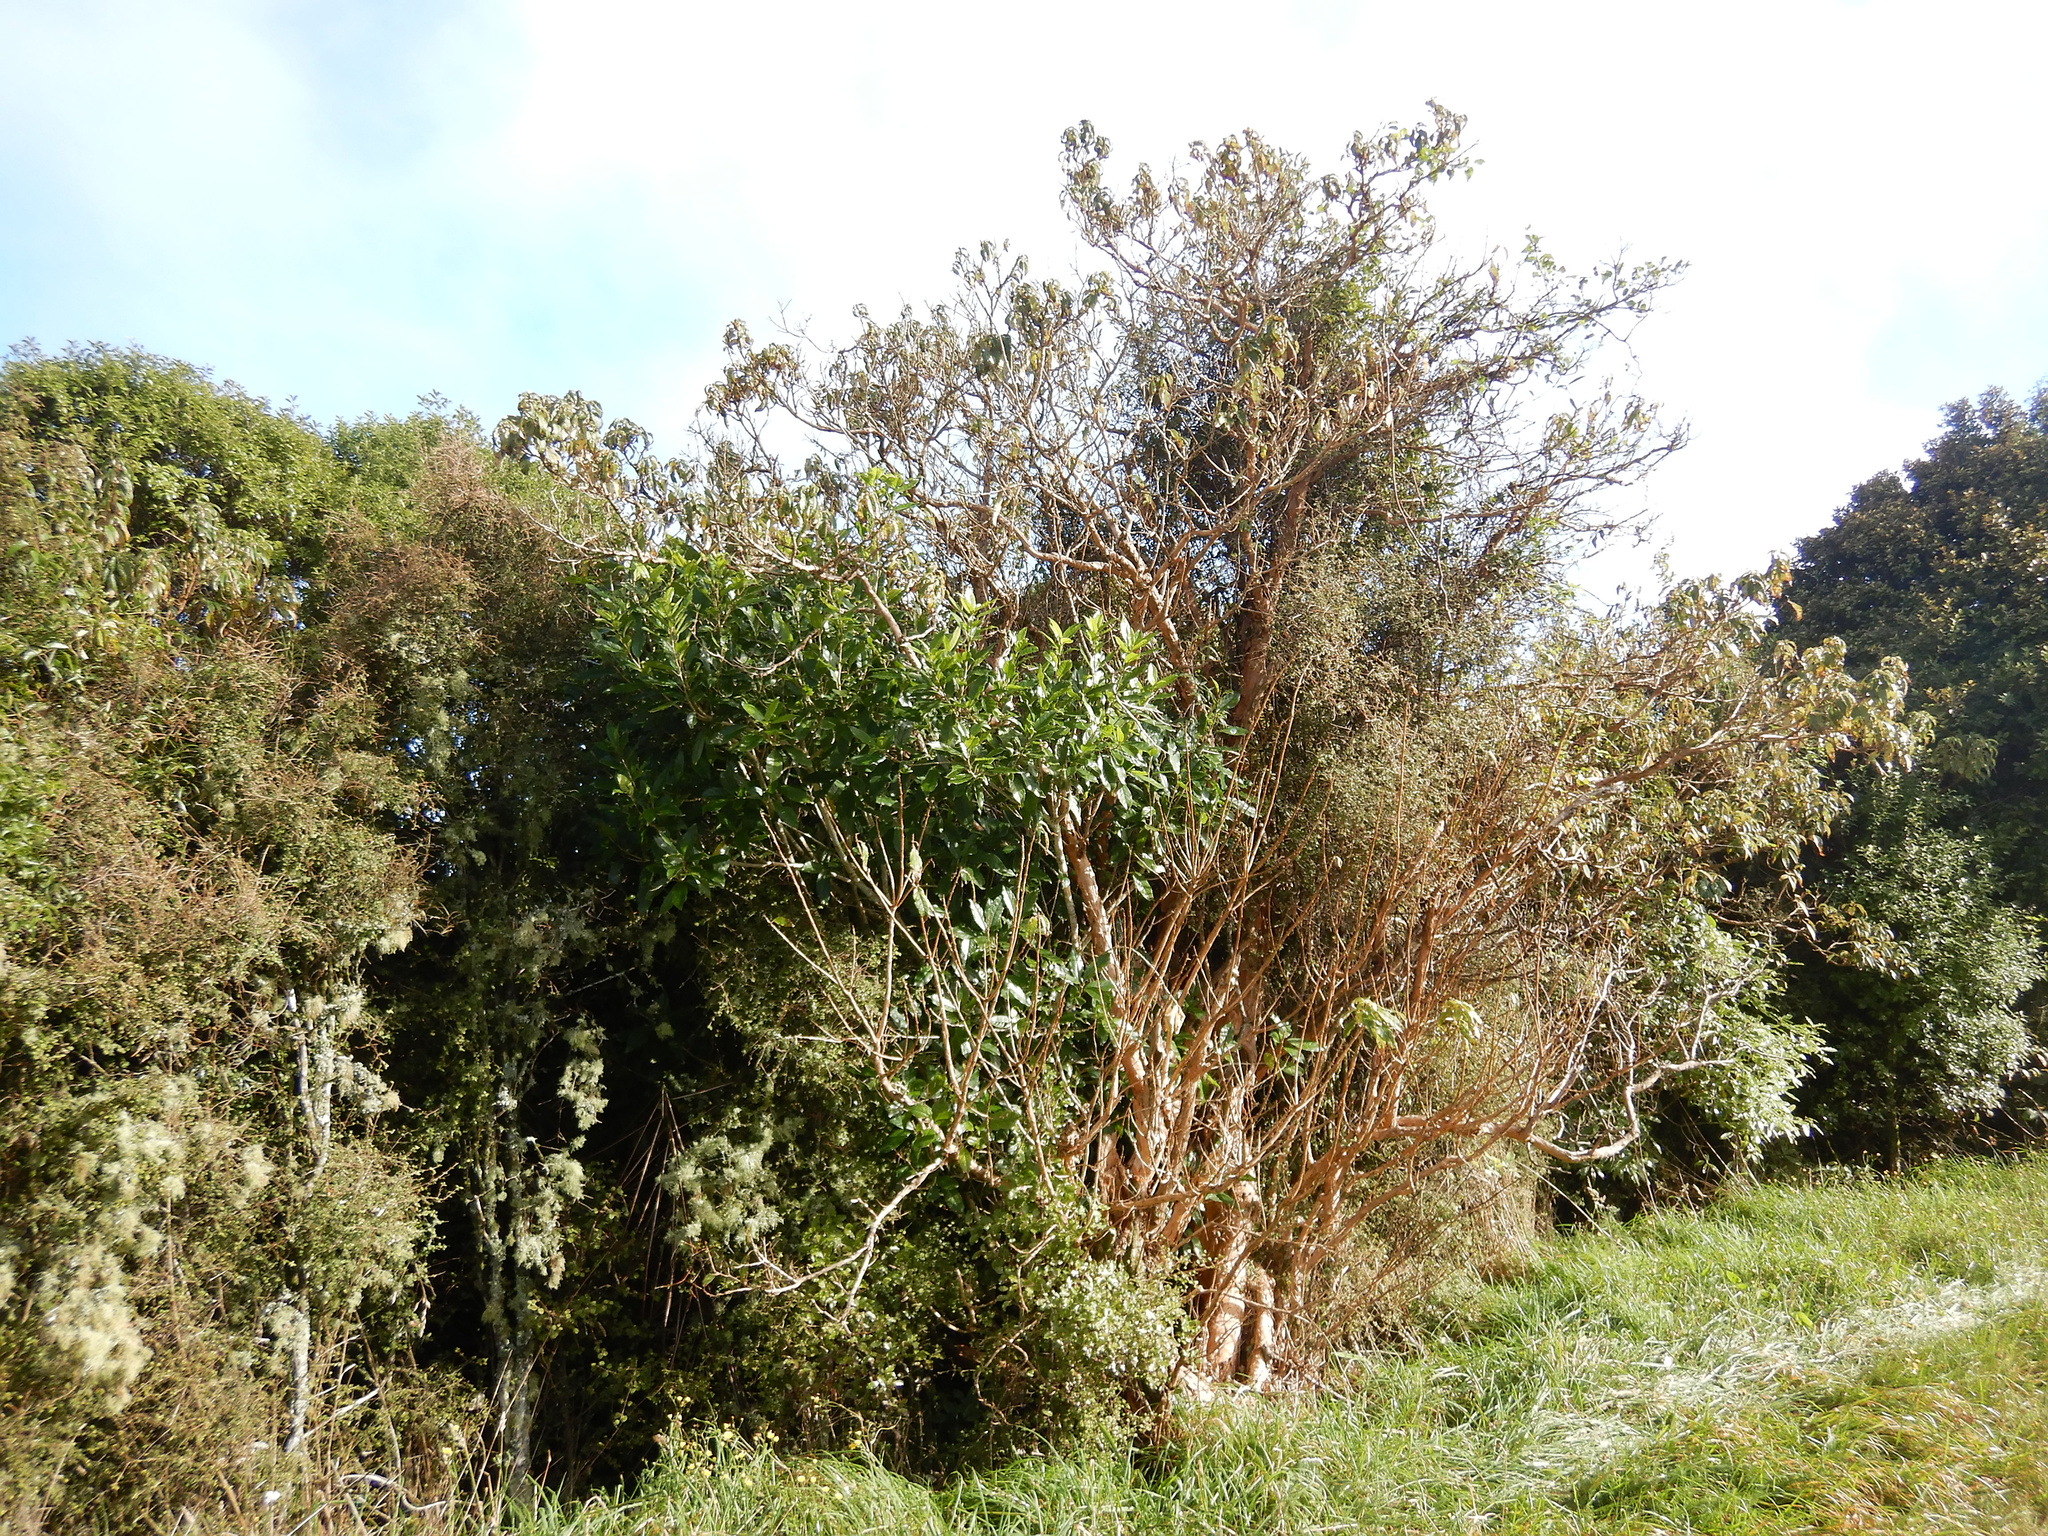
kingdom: Plantae
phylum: Tracheophyta
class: Magnoliopsida
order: Myrtales
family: Onagraceae
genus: Fuchsia
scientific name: Fuchsia excorticata
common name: Tree fuchsia
